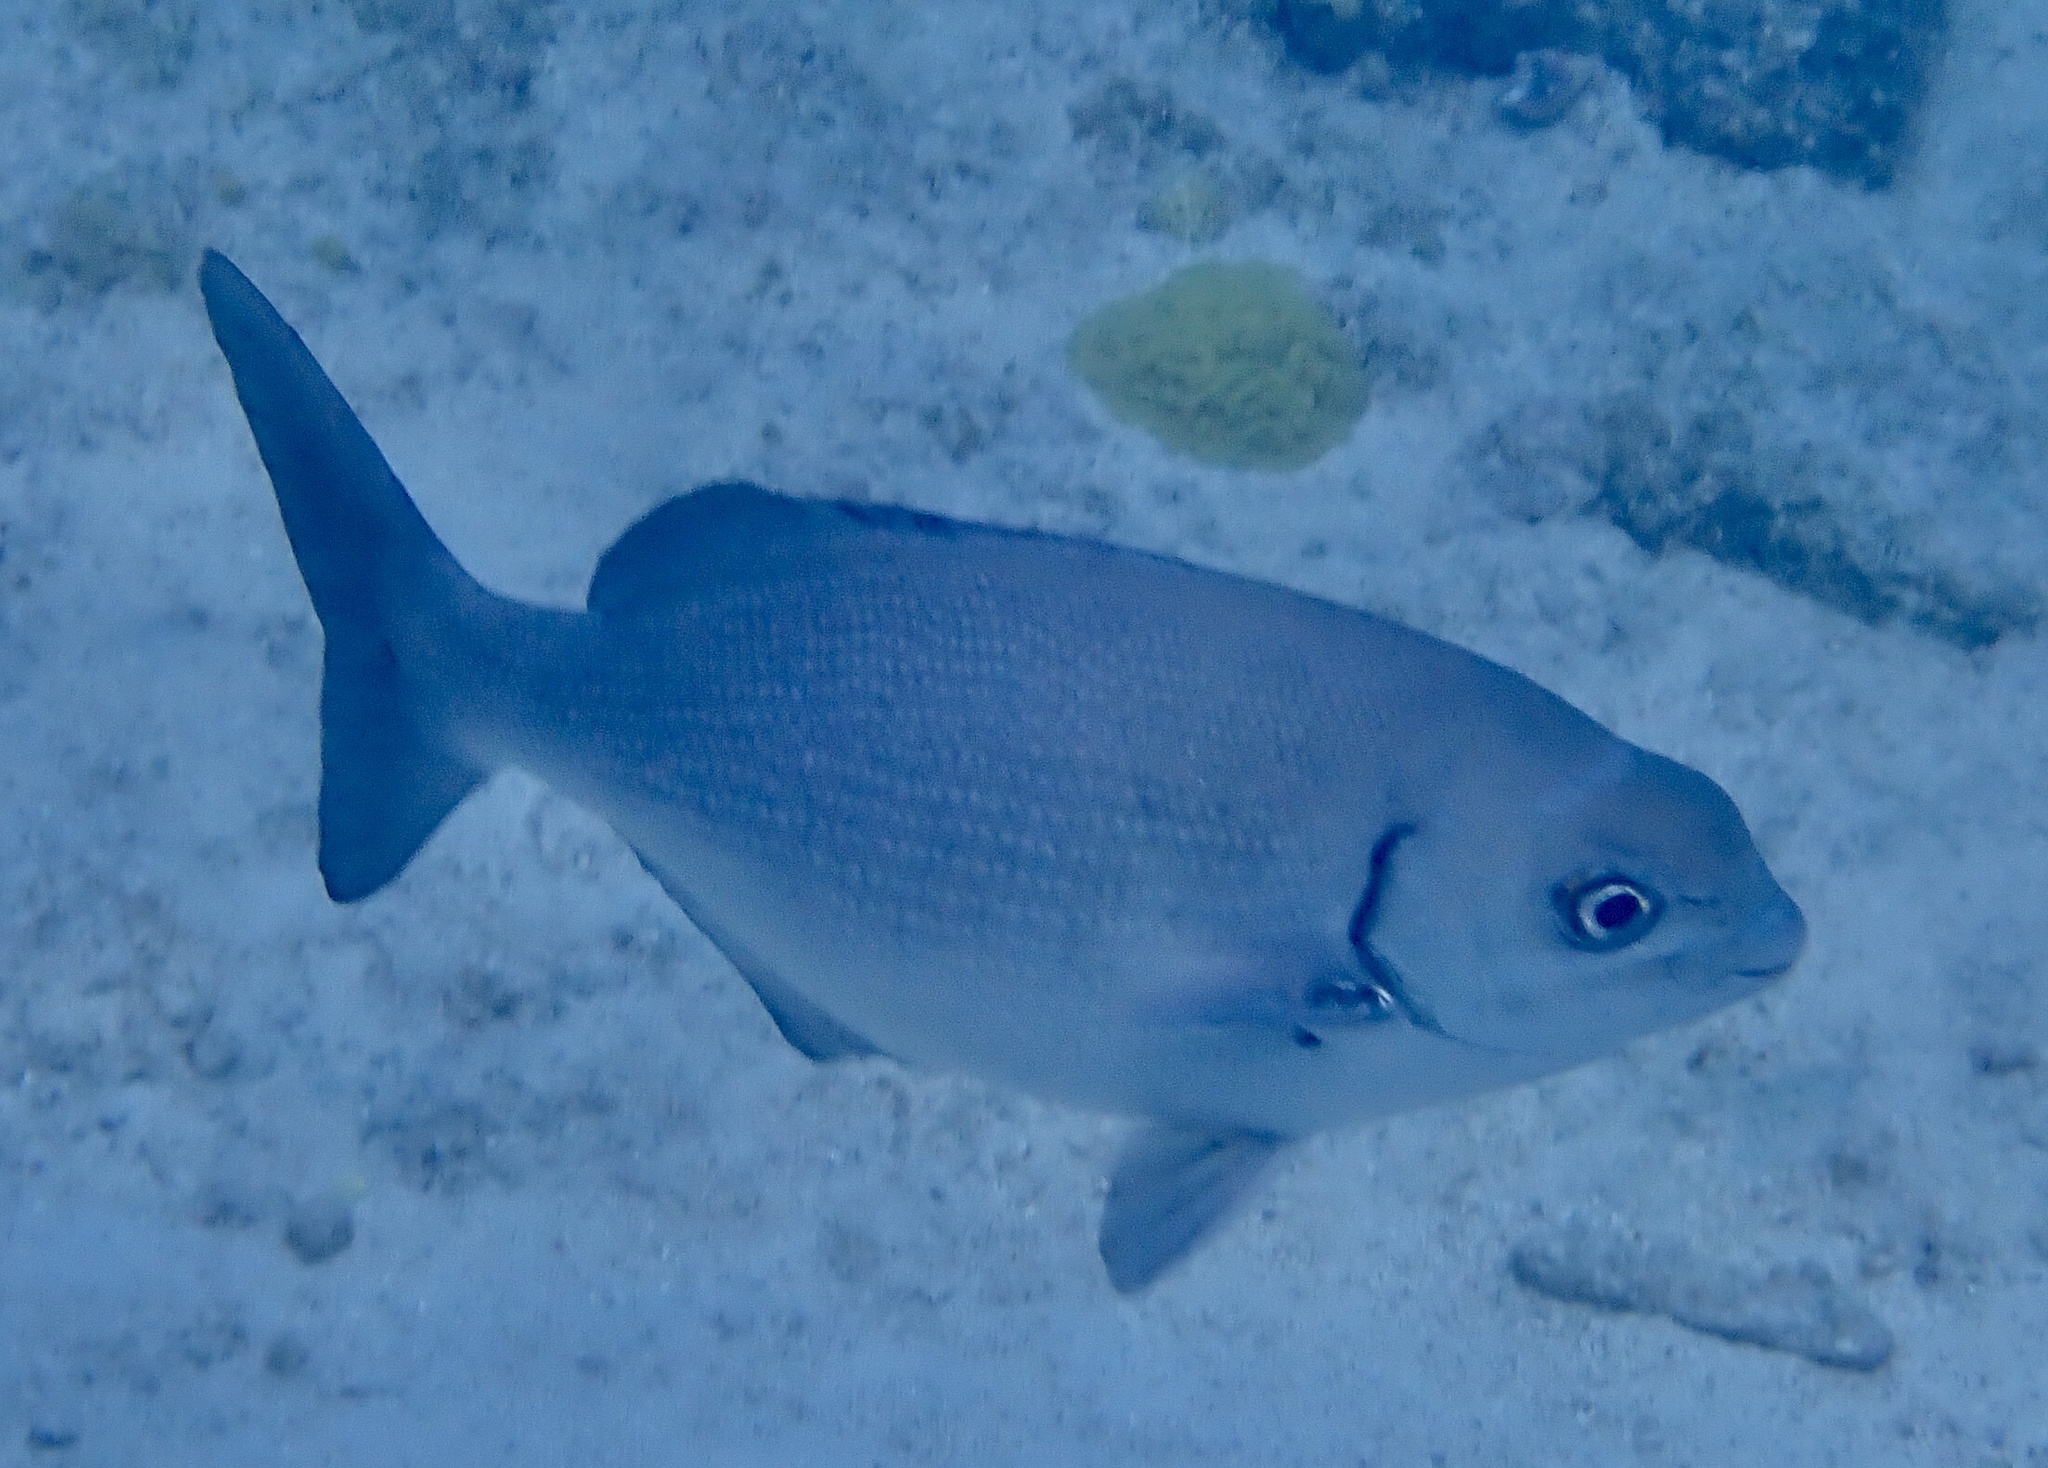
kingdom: Animalia
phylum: Chordata
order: Perciformes
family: Kyphosidae
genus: Kyphosus
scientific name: Kyphosus sectatrix
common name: Bermuda chub
